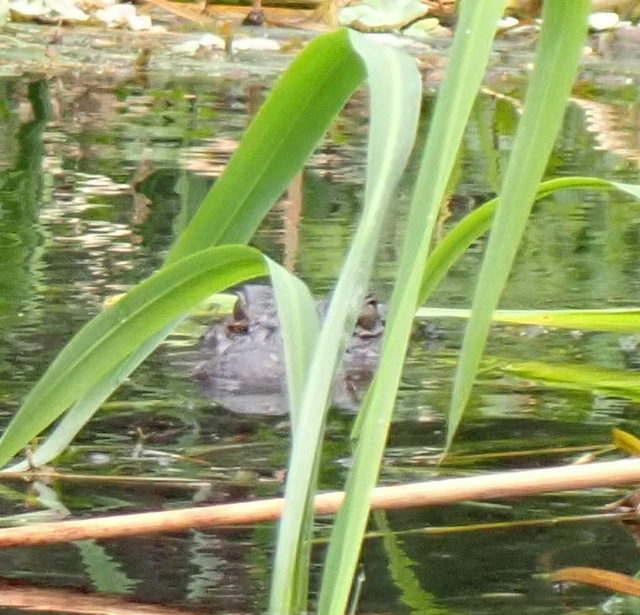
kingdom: Animalia
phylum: Chordata
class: Crocodylia
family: Alligatoridae
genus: Alligator
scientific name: Alligator mississippiensis
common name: American alligator
